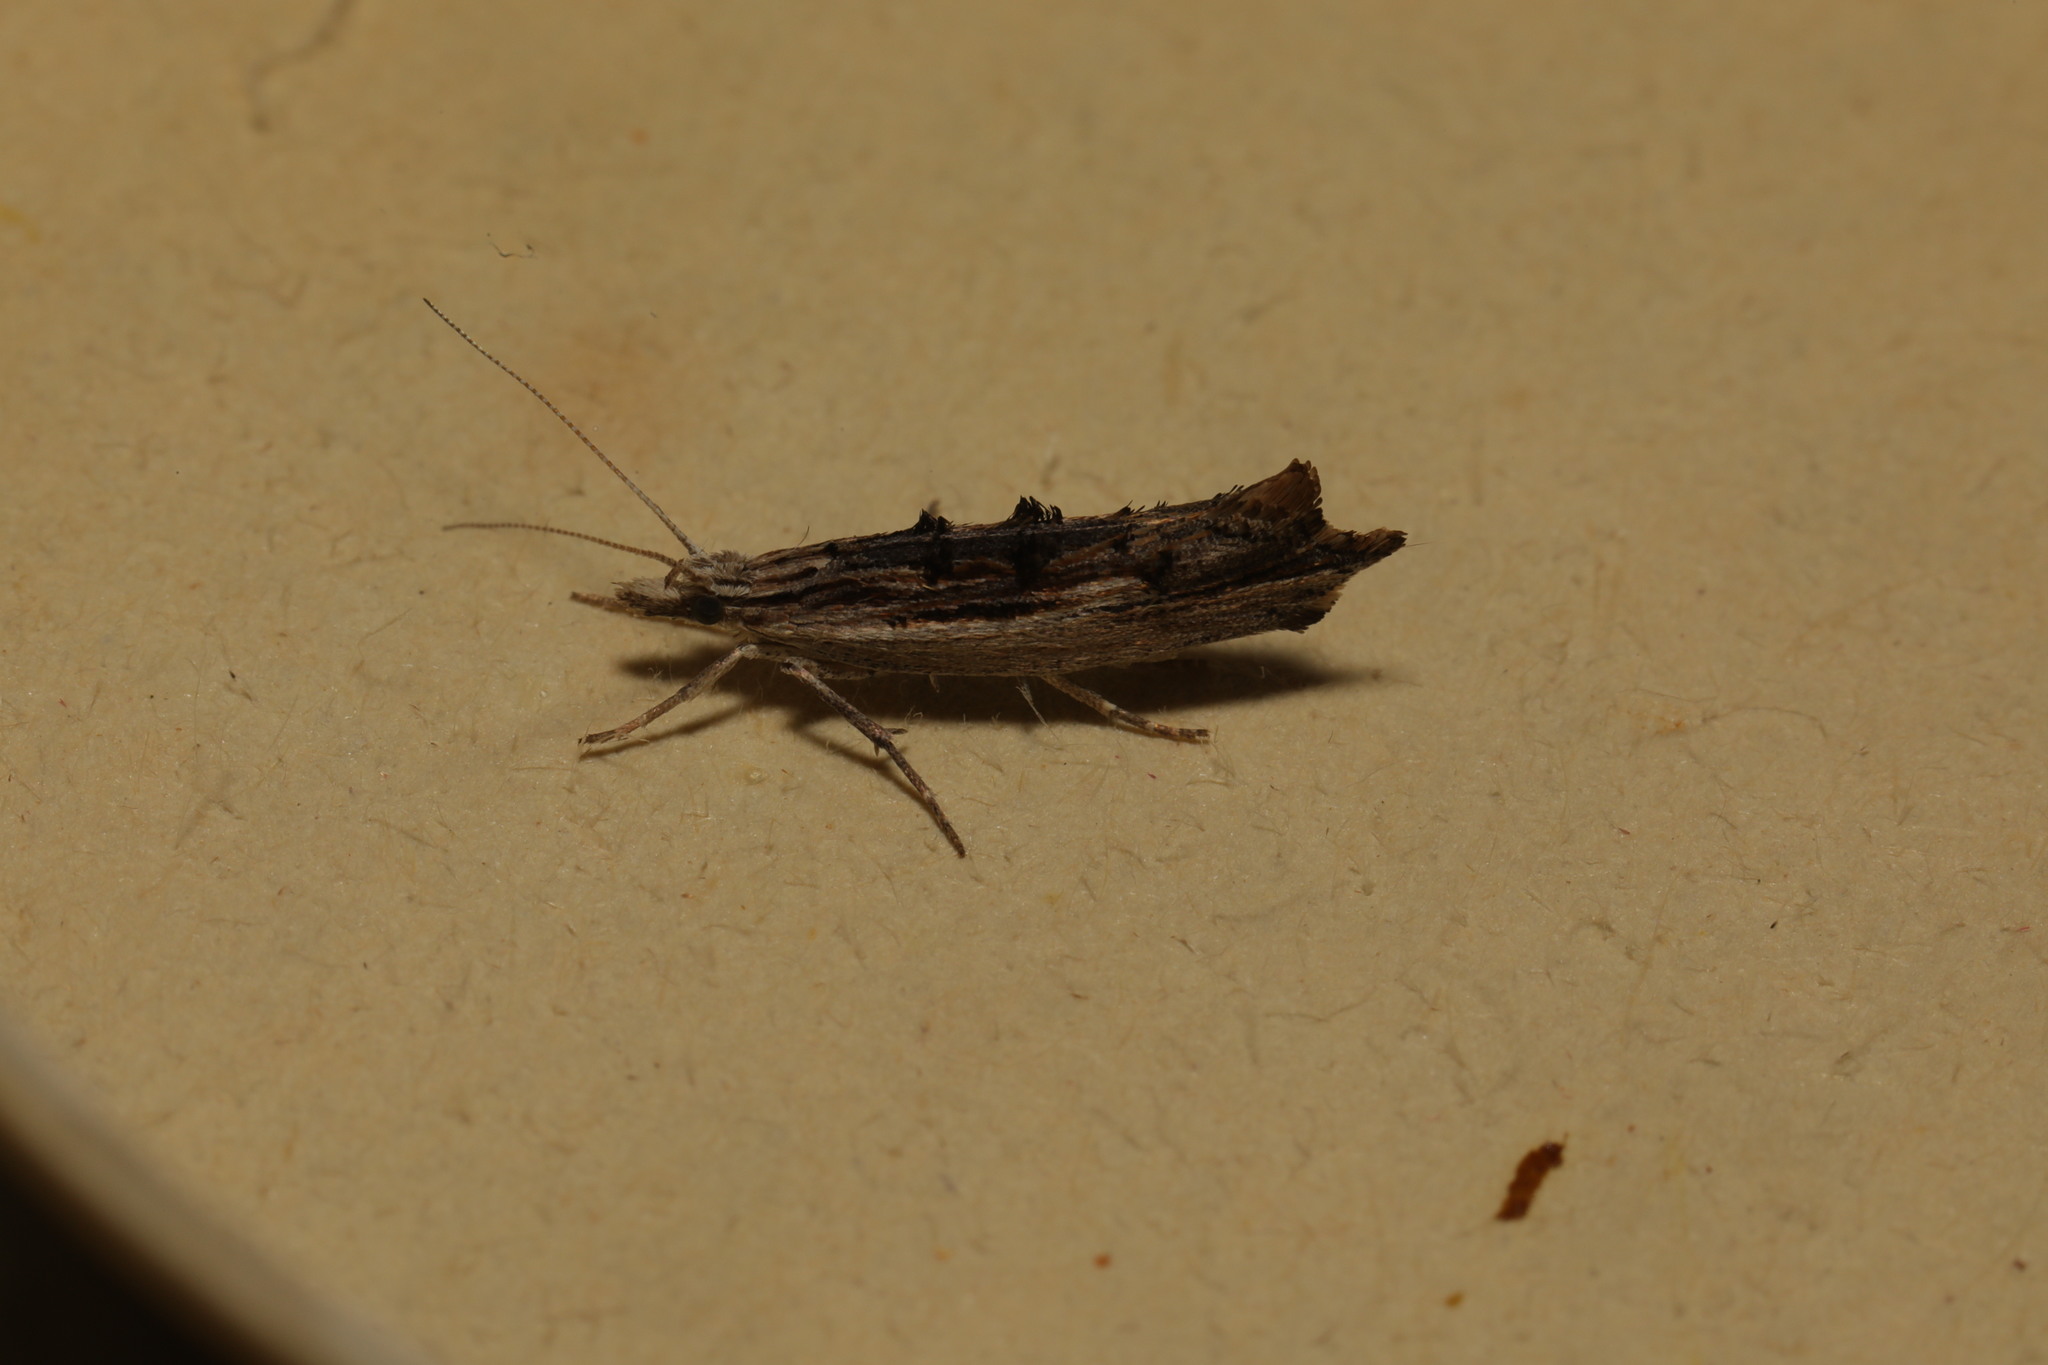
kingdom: Animalia
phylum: Arthropoda
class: Insecta
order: Lepidoptera
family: Ypsolophidae
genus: Ypsolopha
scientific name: Ypsolopha scabrella
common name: Wainscot smudge
